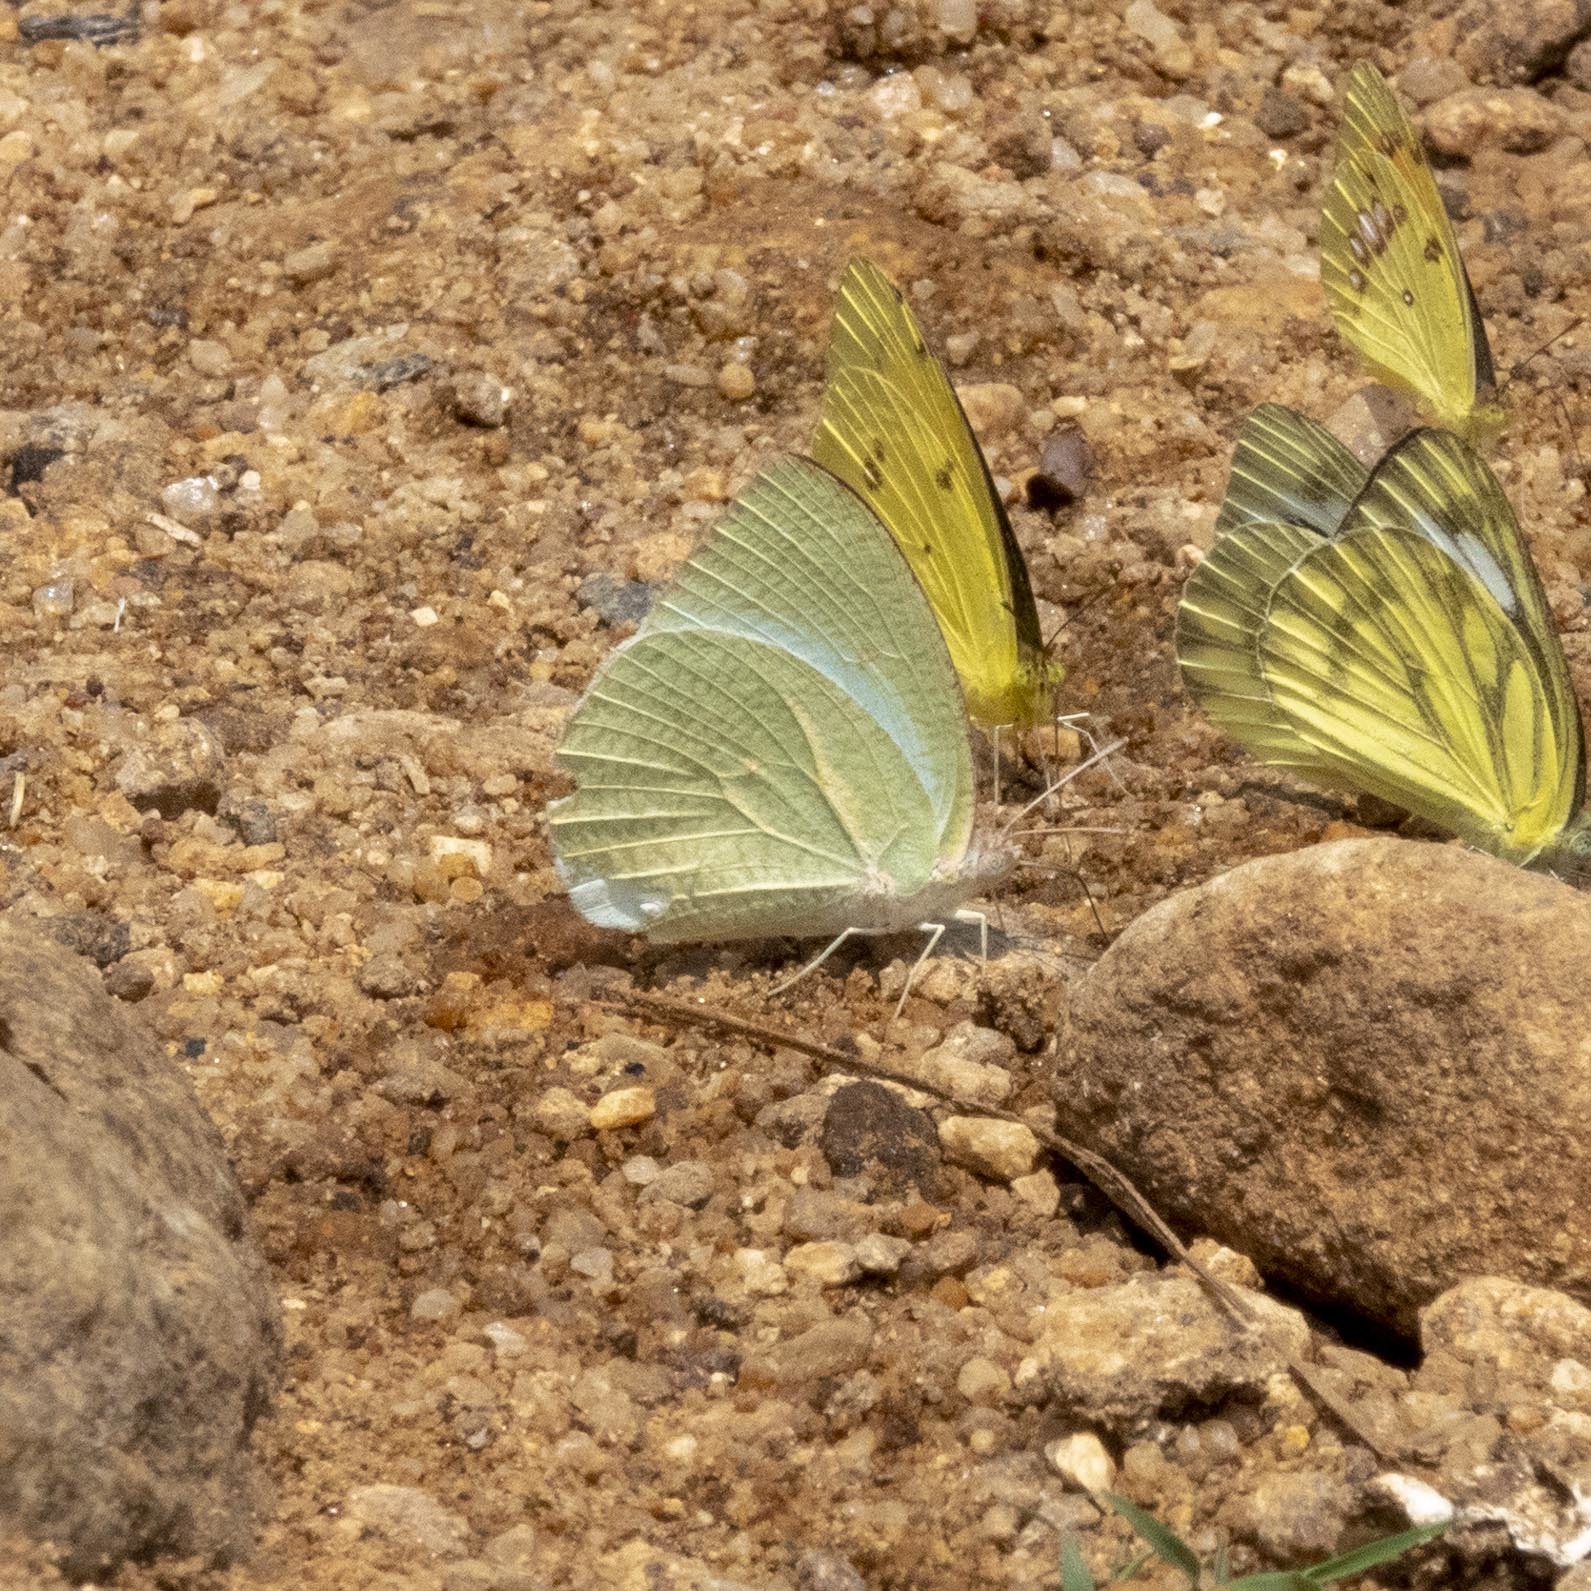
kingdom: Animalia
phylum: Arthropoda
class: Insecta
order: Lepidoptera
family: Pieridae
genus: Catopsilia
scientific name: Catopsilia pyranthe
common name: Mottled emigrant
